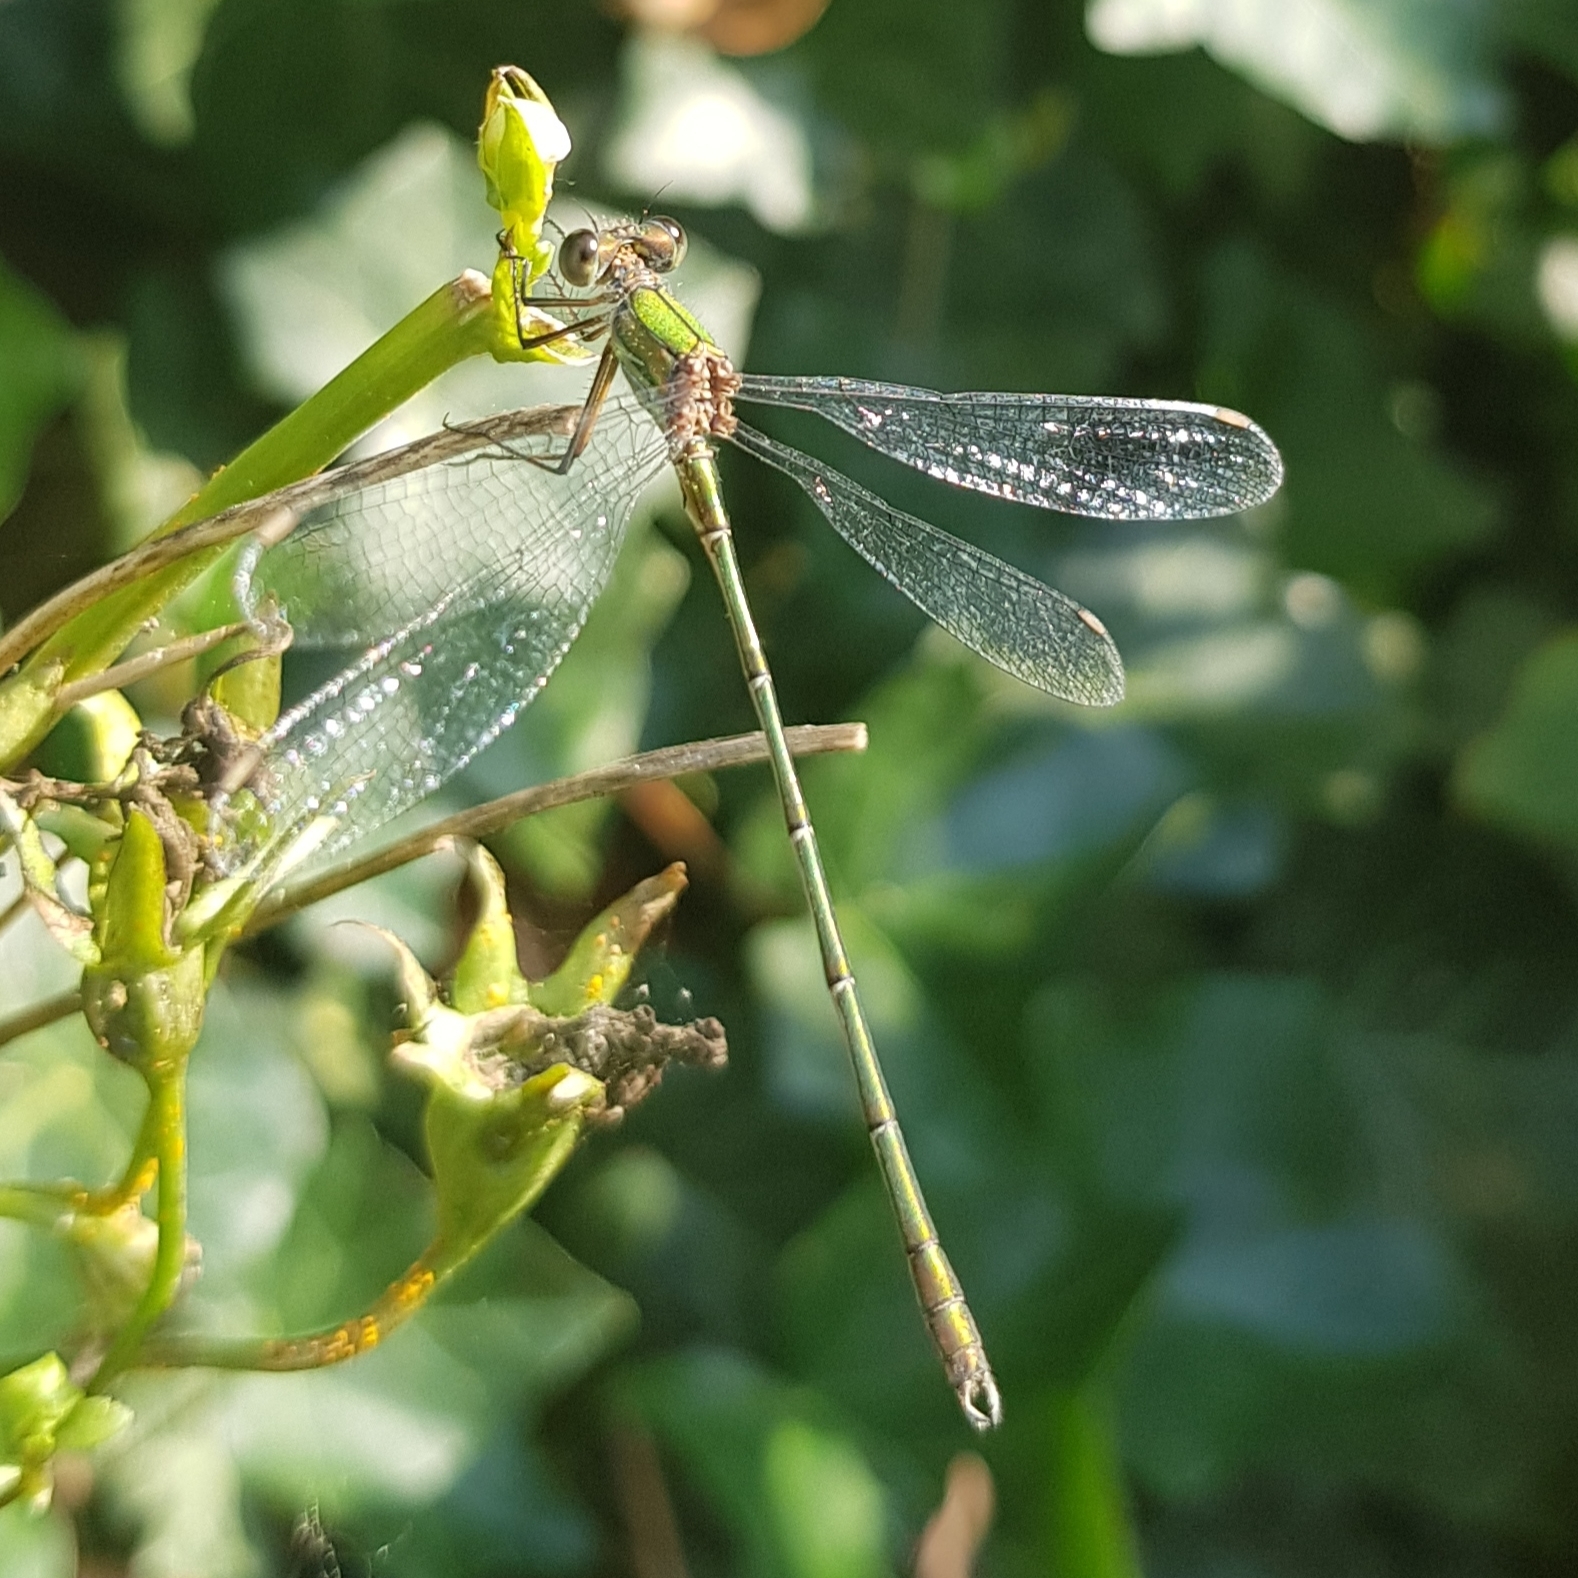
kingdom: Animalia
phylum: Arthropoda
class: Insecta
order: Odonata
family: Lestidae
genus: Chalcolestes
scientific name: Chalcolestes viridis
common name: Green emerald damselfly
